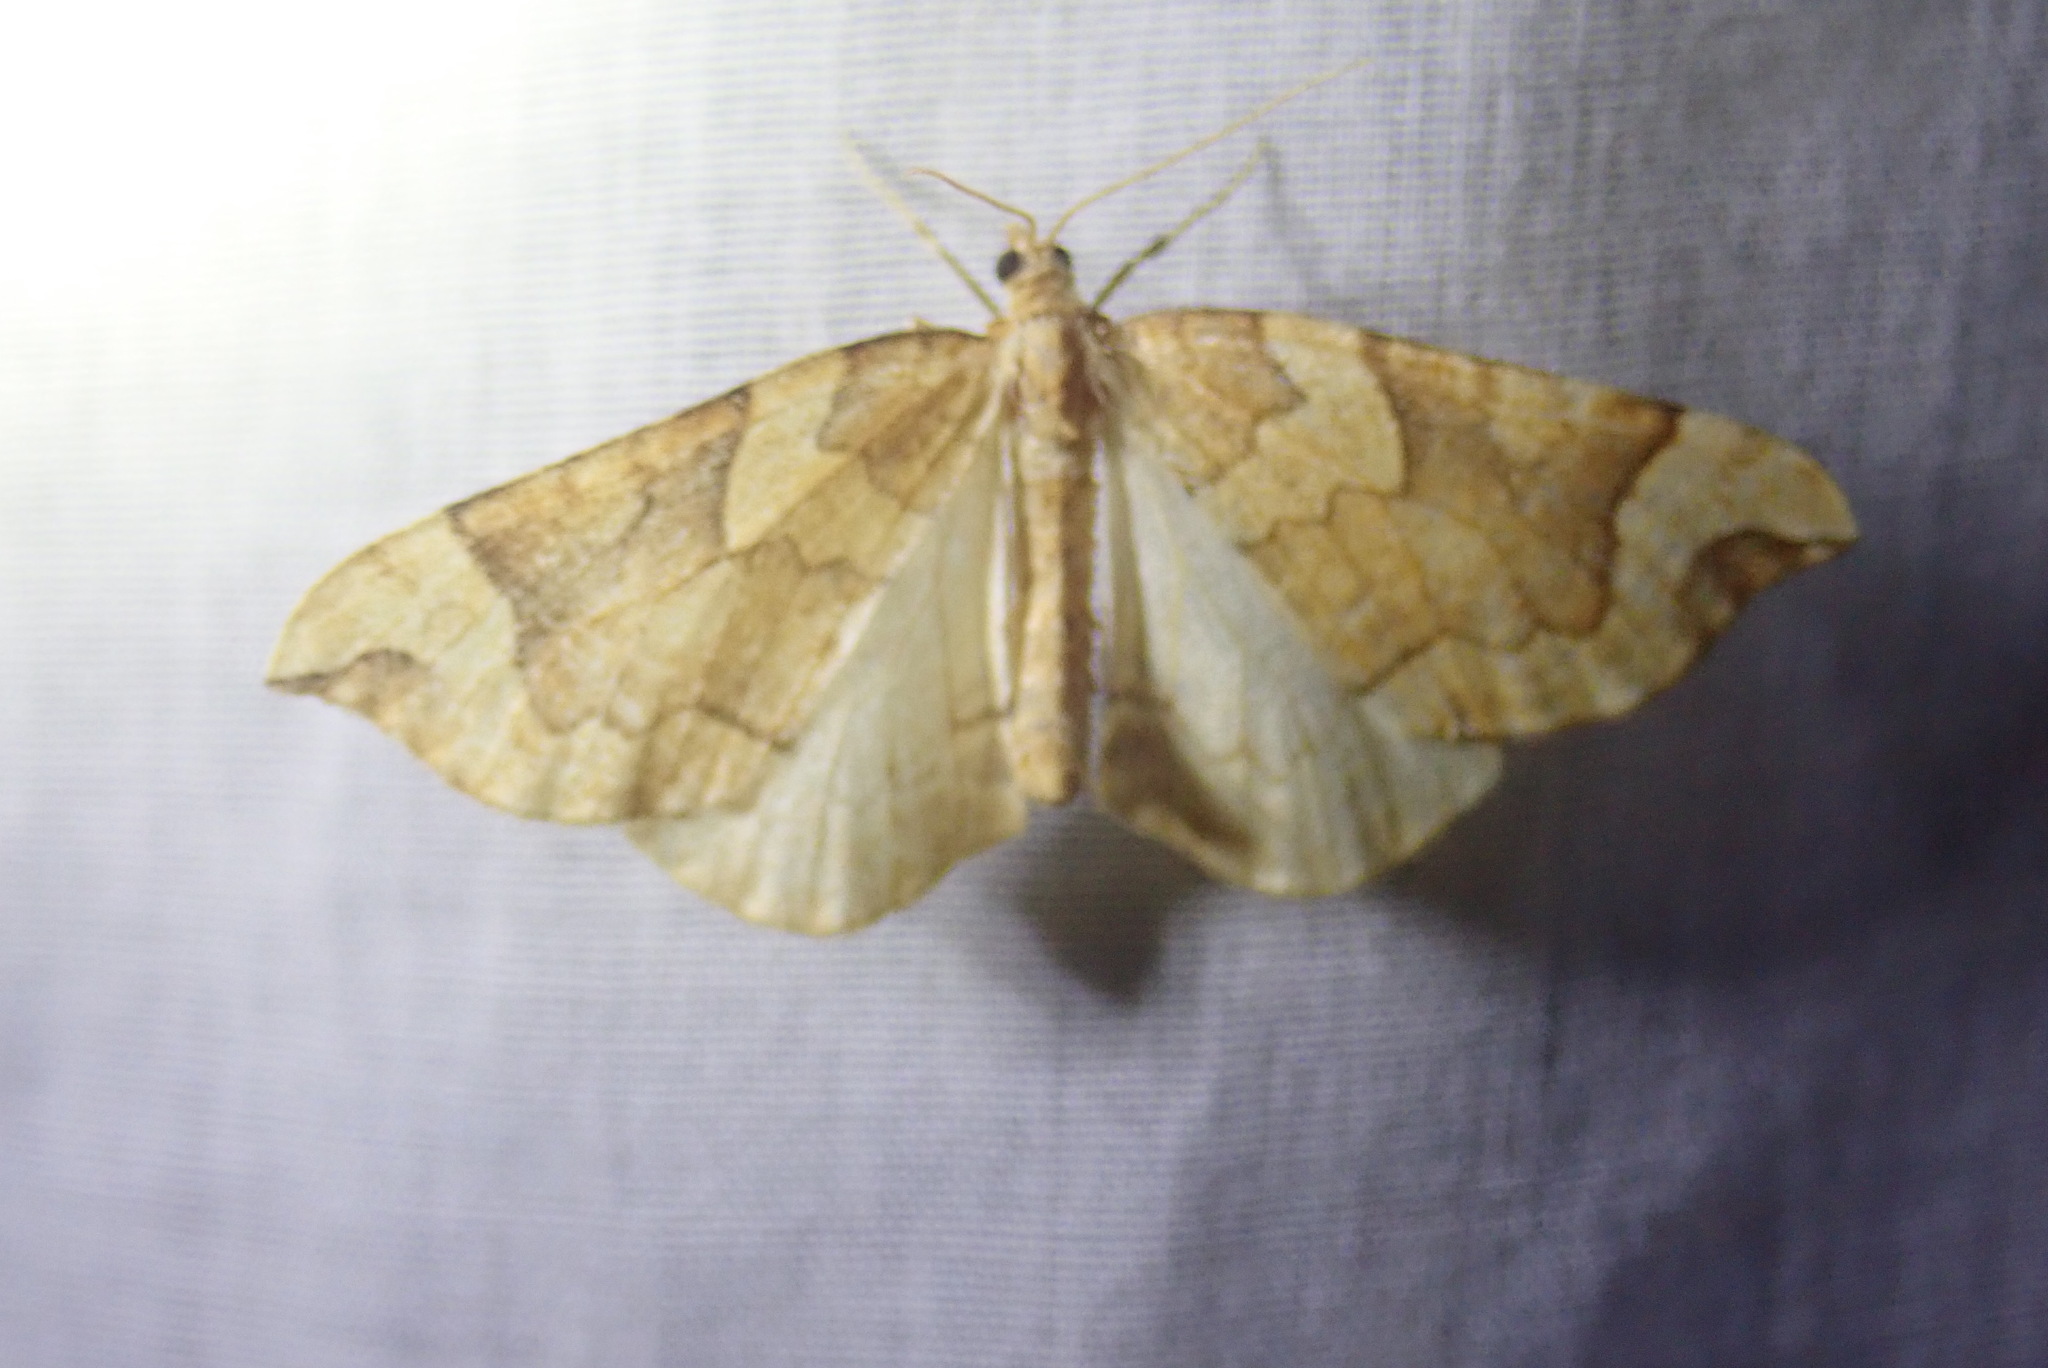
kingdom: Animalia
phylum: Arthropoda
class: Insecta
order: Lepidoptera
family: Geometridae
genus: Eulithis
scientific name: Eulithis propulsata
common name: Currant eulithis moth
